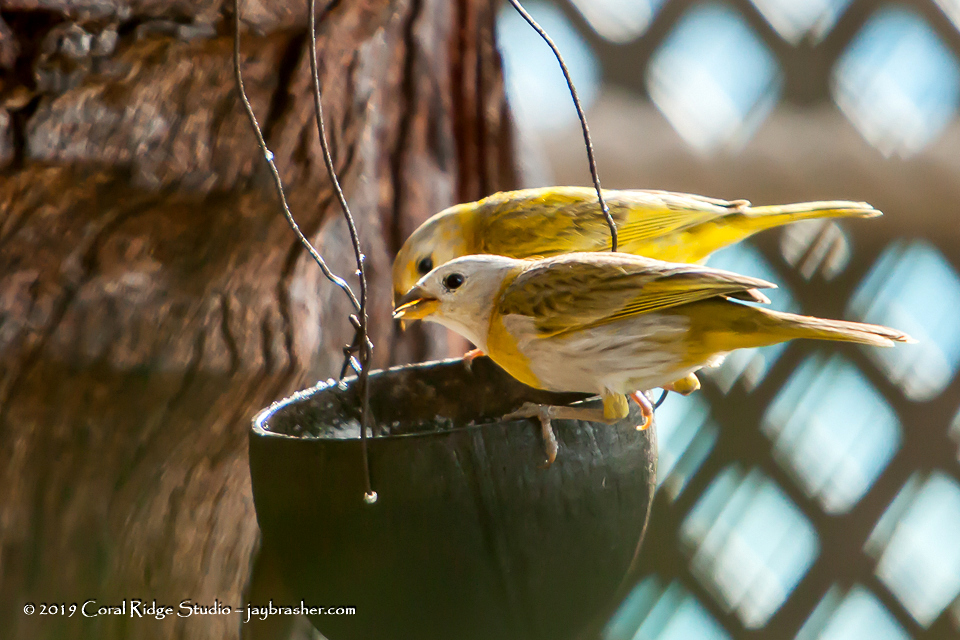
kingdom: Animalia
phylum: Chordata
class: Aves
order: Passeriformes
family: Thraupidae
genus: Sicalis
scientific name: Sicalis flaveola
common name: Saffron finch
